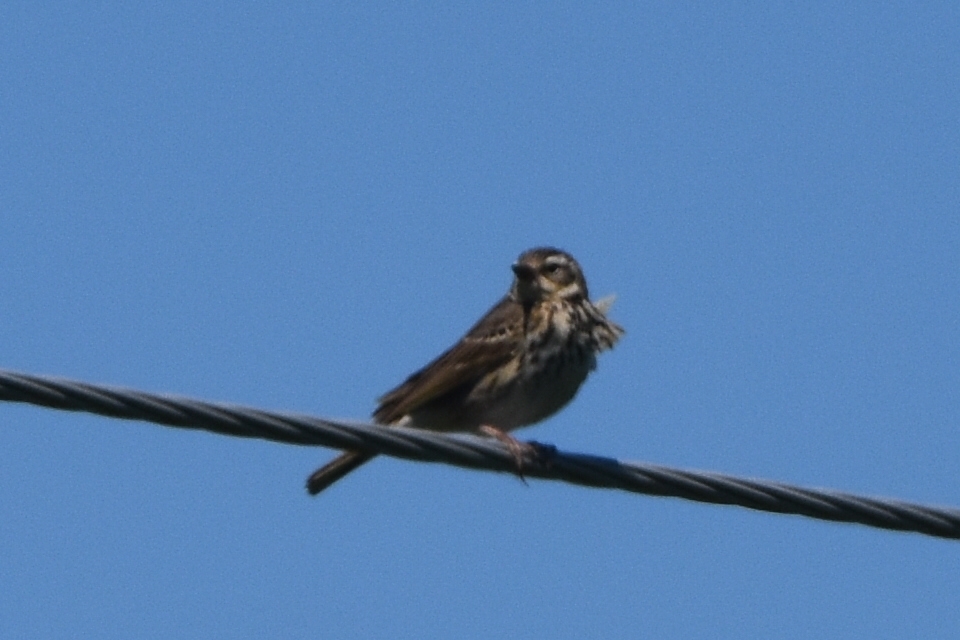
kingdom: Animalia
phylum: Chordata
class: Aves
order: Passeriformes
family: Motacillidae
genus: Anthus
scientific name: Anthus hodgsoni
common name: Olive-backed pipit
